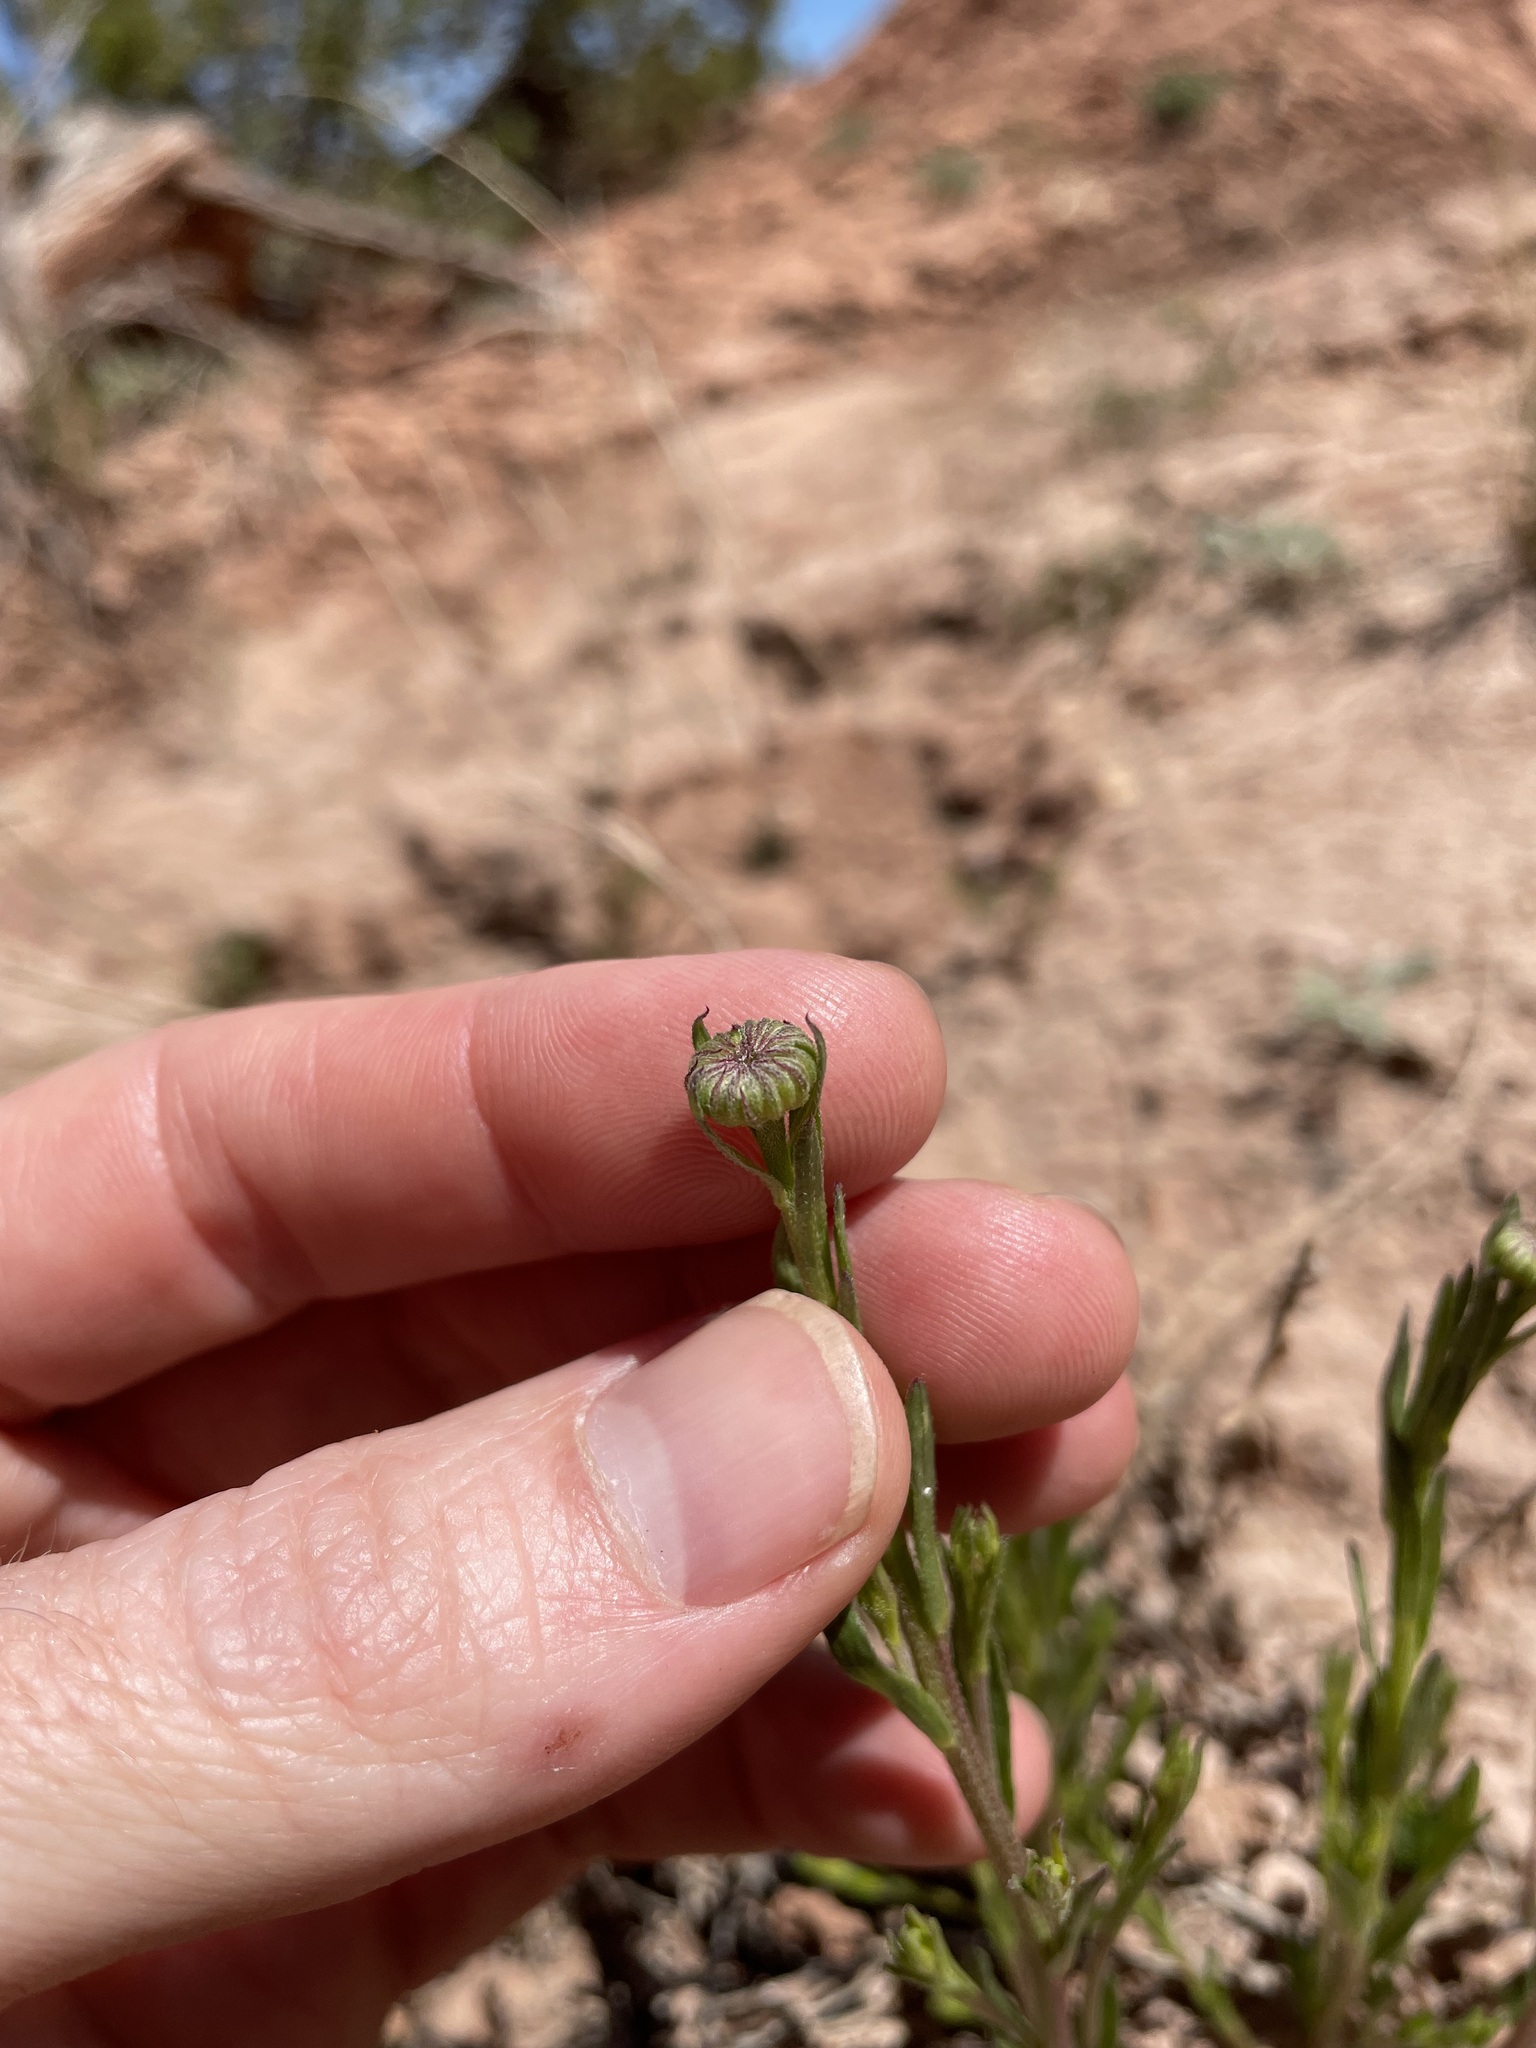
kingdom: Plantae
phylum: Tracheophyta
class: Magnoliopsida
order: Asterales
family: Asteraceae
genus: Erigeron
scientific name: Erigeron rhizomatus
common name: Zuni fleabane
